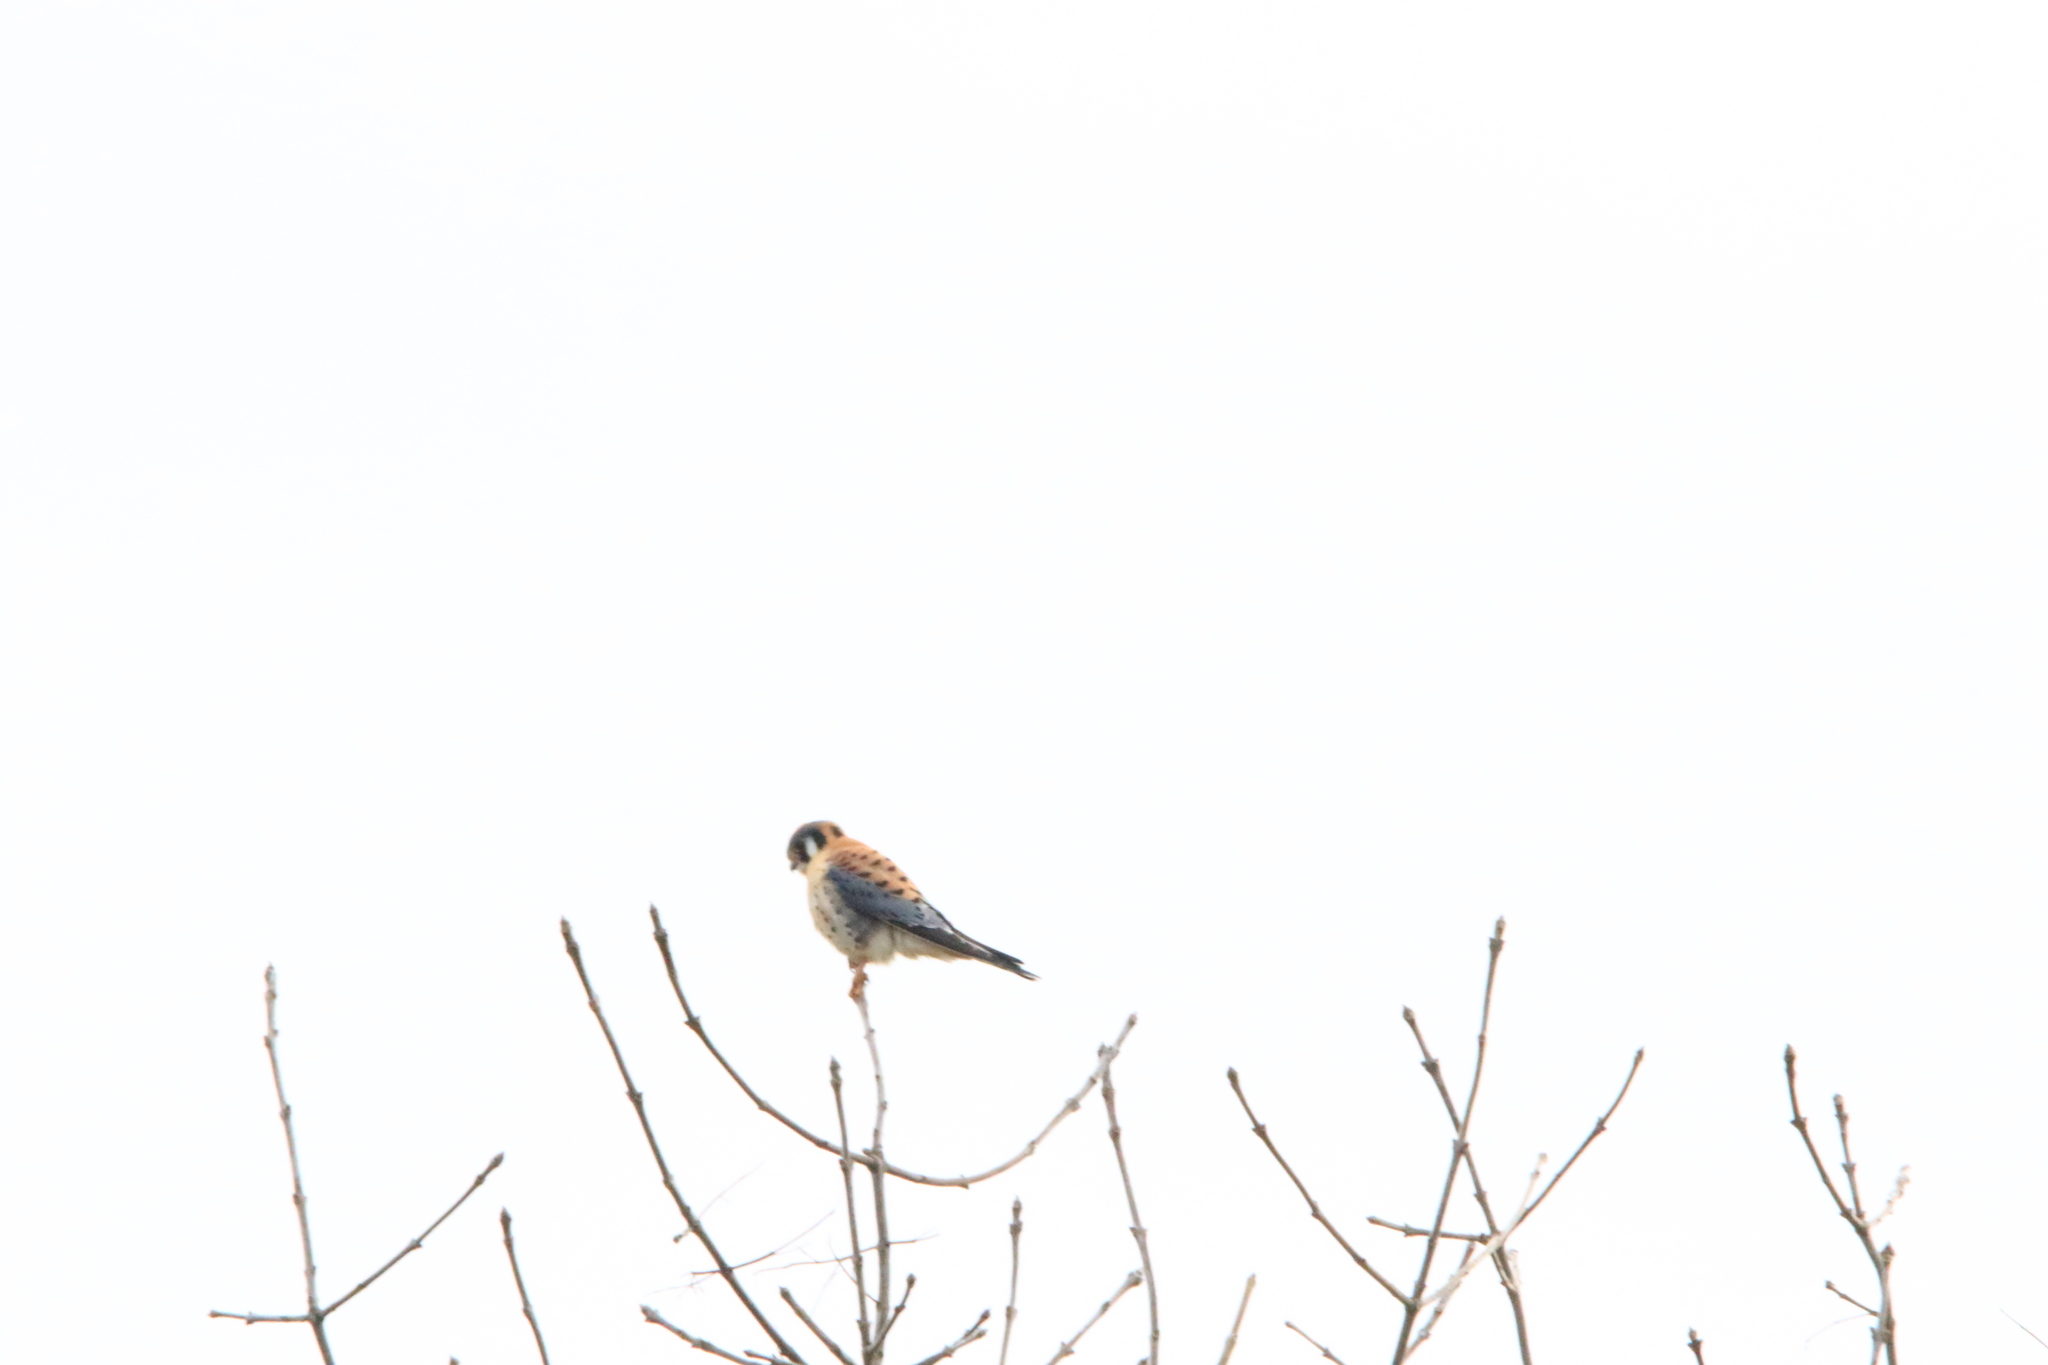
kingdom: Animalia
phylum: Chordata
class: Aves
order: Falconiformes
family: Falconidae
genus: Falco
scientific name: Falco sparverius
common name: American kestrel
